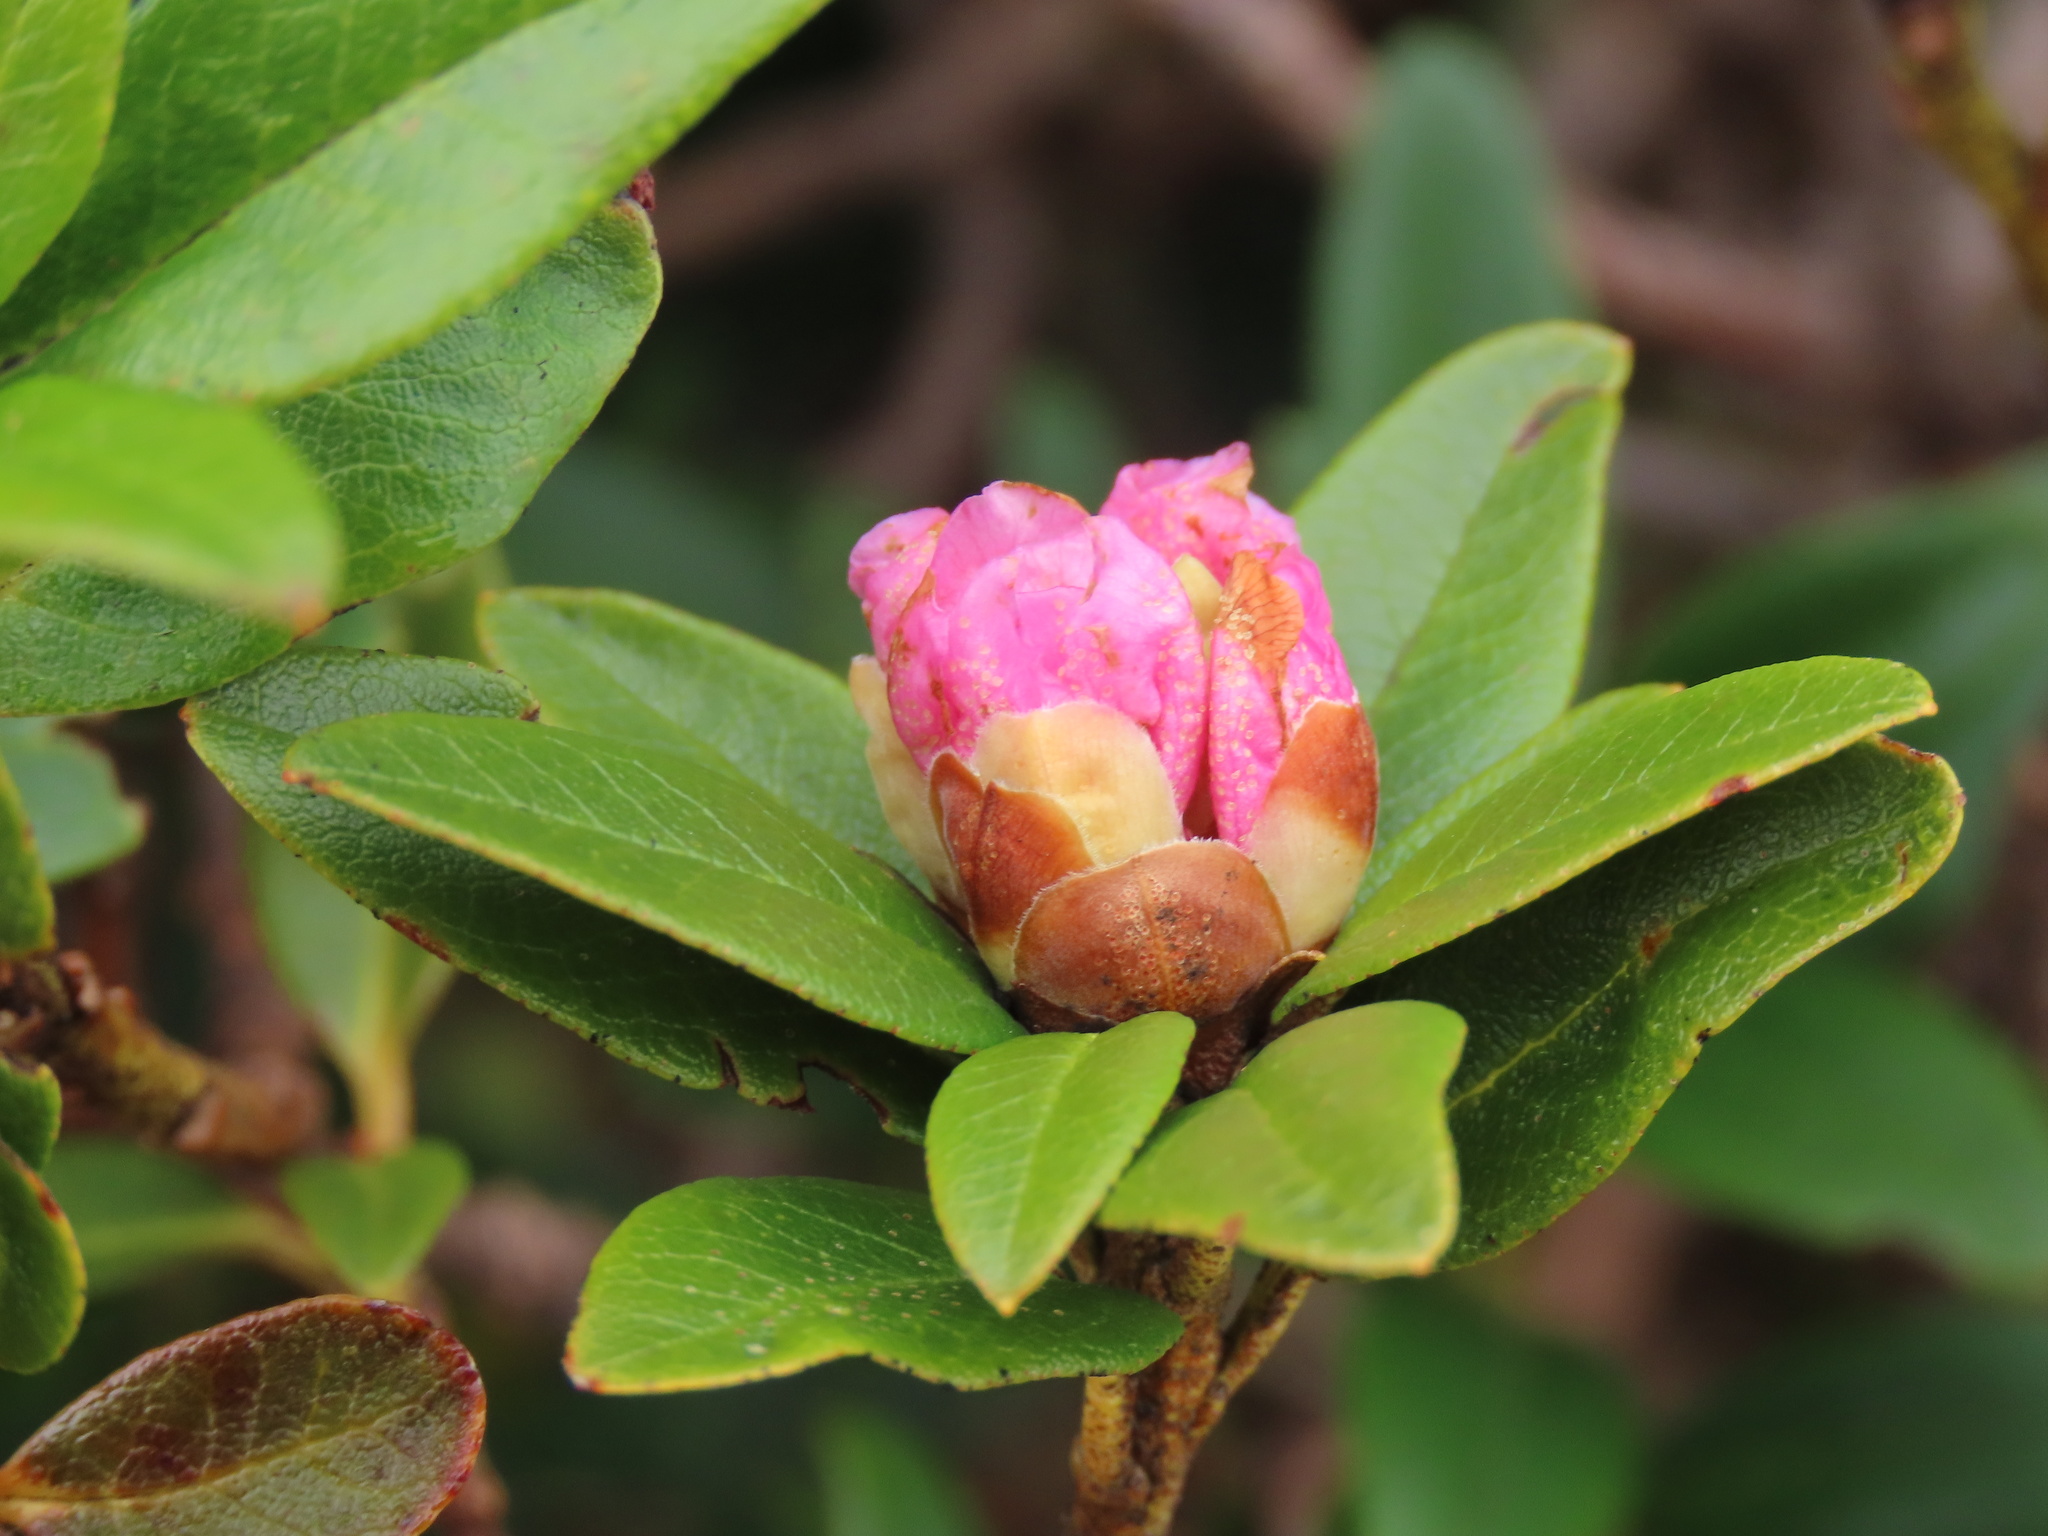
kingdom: Plantae
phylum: Tracheophyta
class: Magnoliopsida
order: Ericales
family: Ericaceae
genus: Rhododendron
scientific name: Rhododendron ferrugineum
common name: Alpenrose
